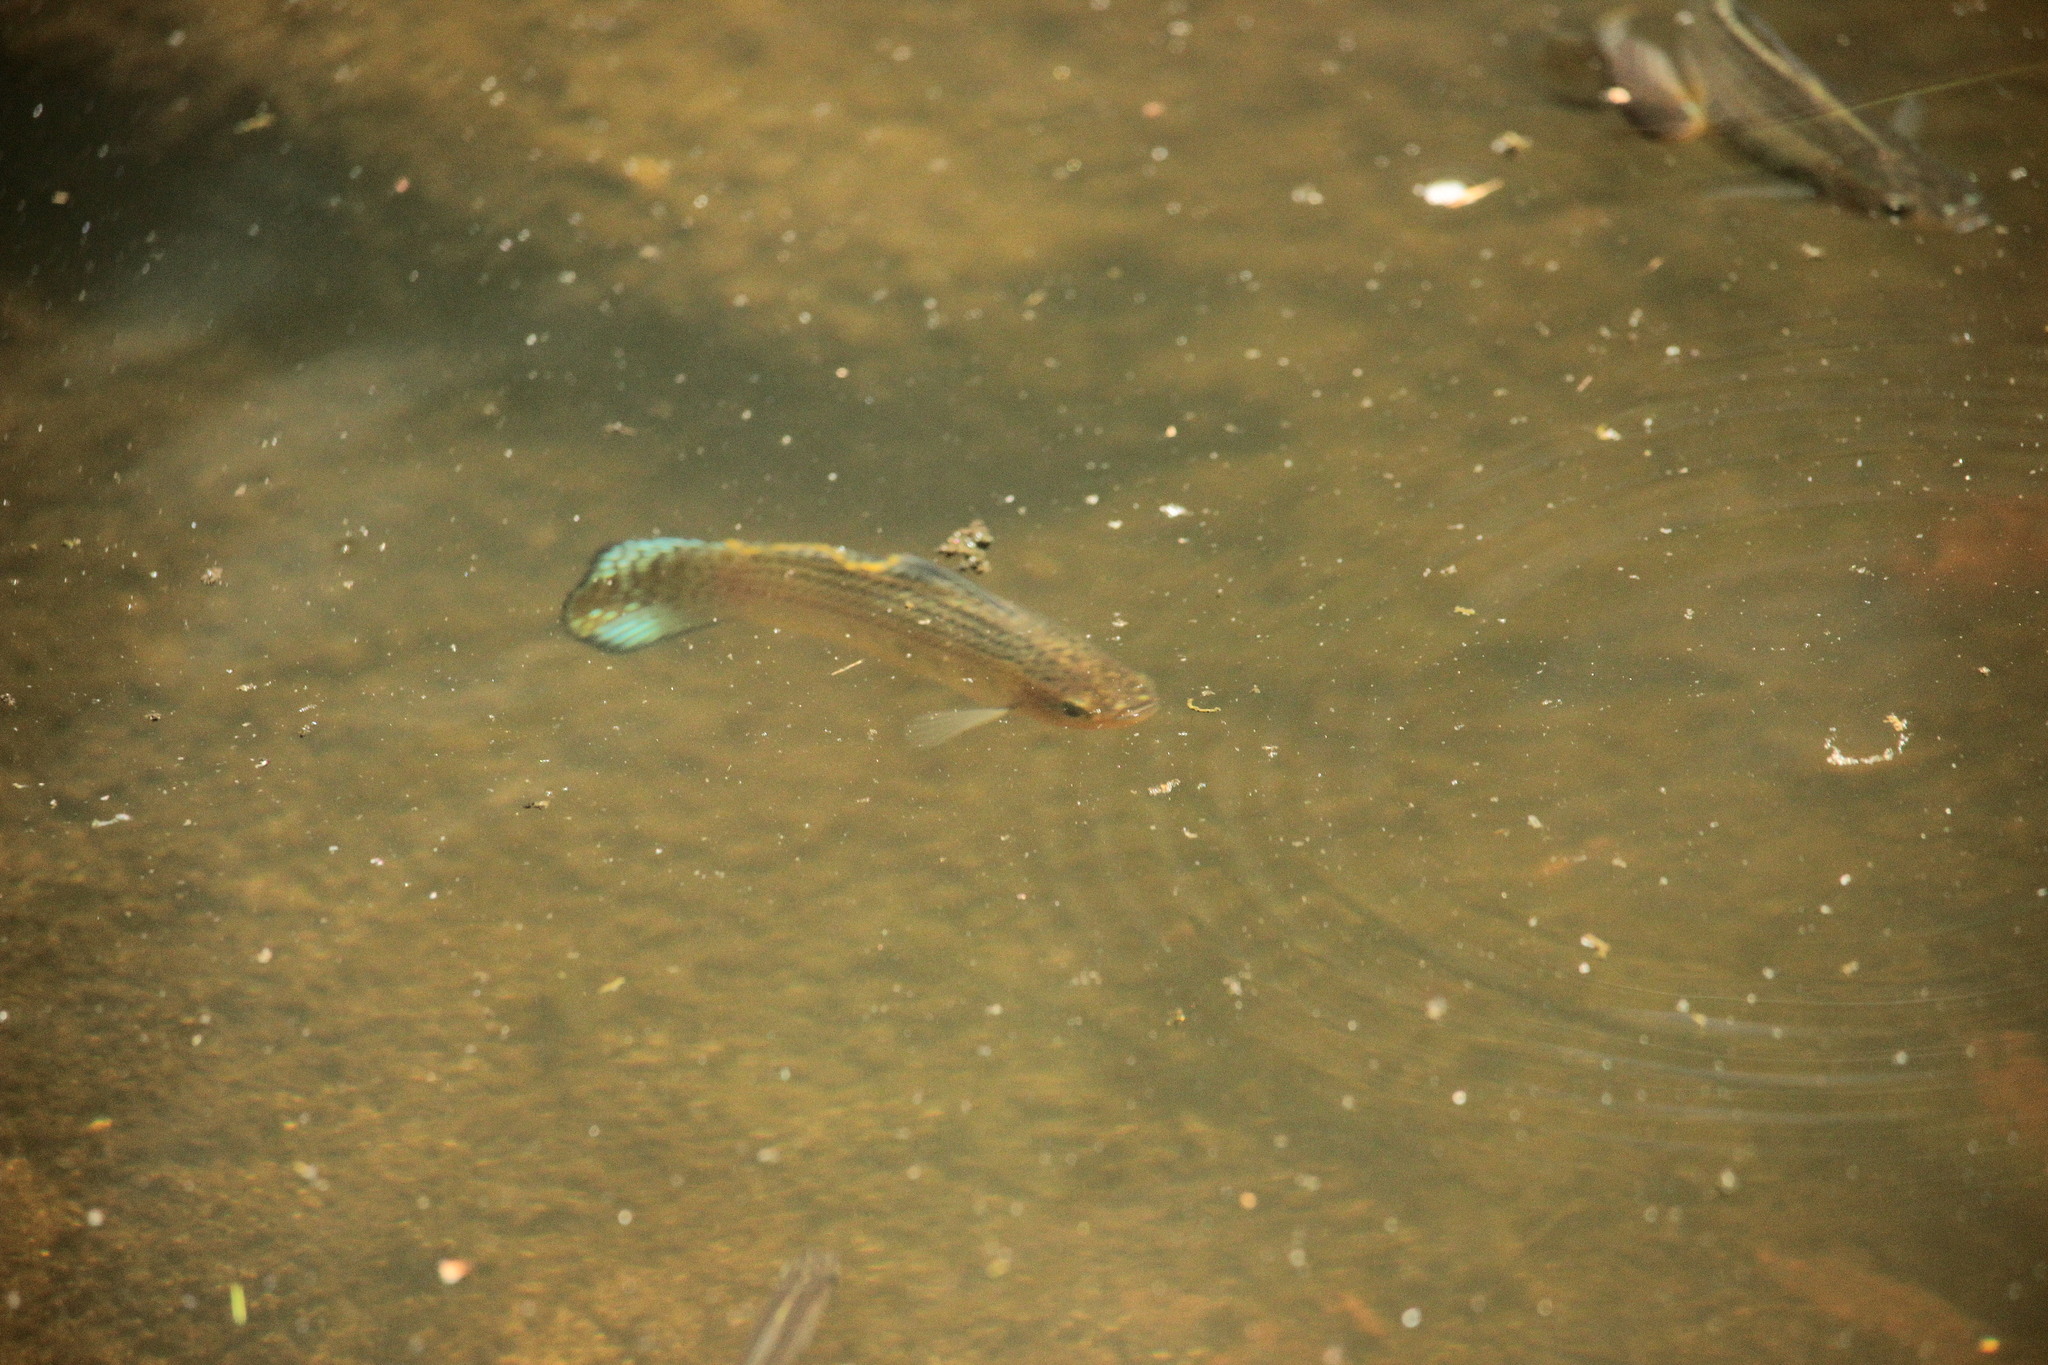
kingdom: Animalia
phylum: Chordata
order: Cyprinodontiformes
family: Poeciliidae
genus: Poecilia
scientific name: Poecilia latipinna
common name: Sailfin molly
